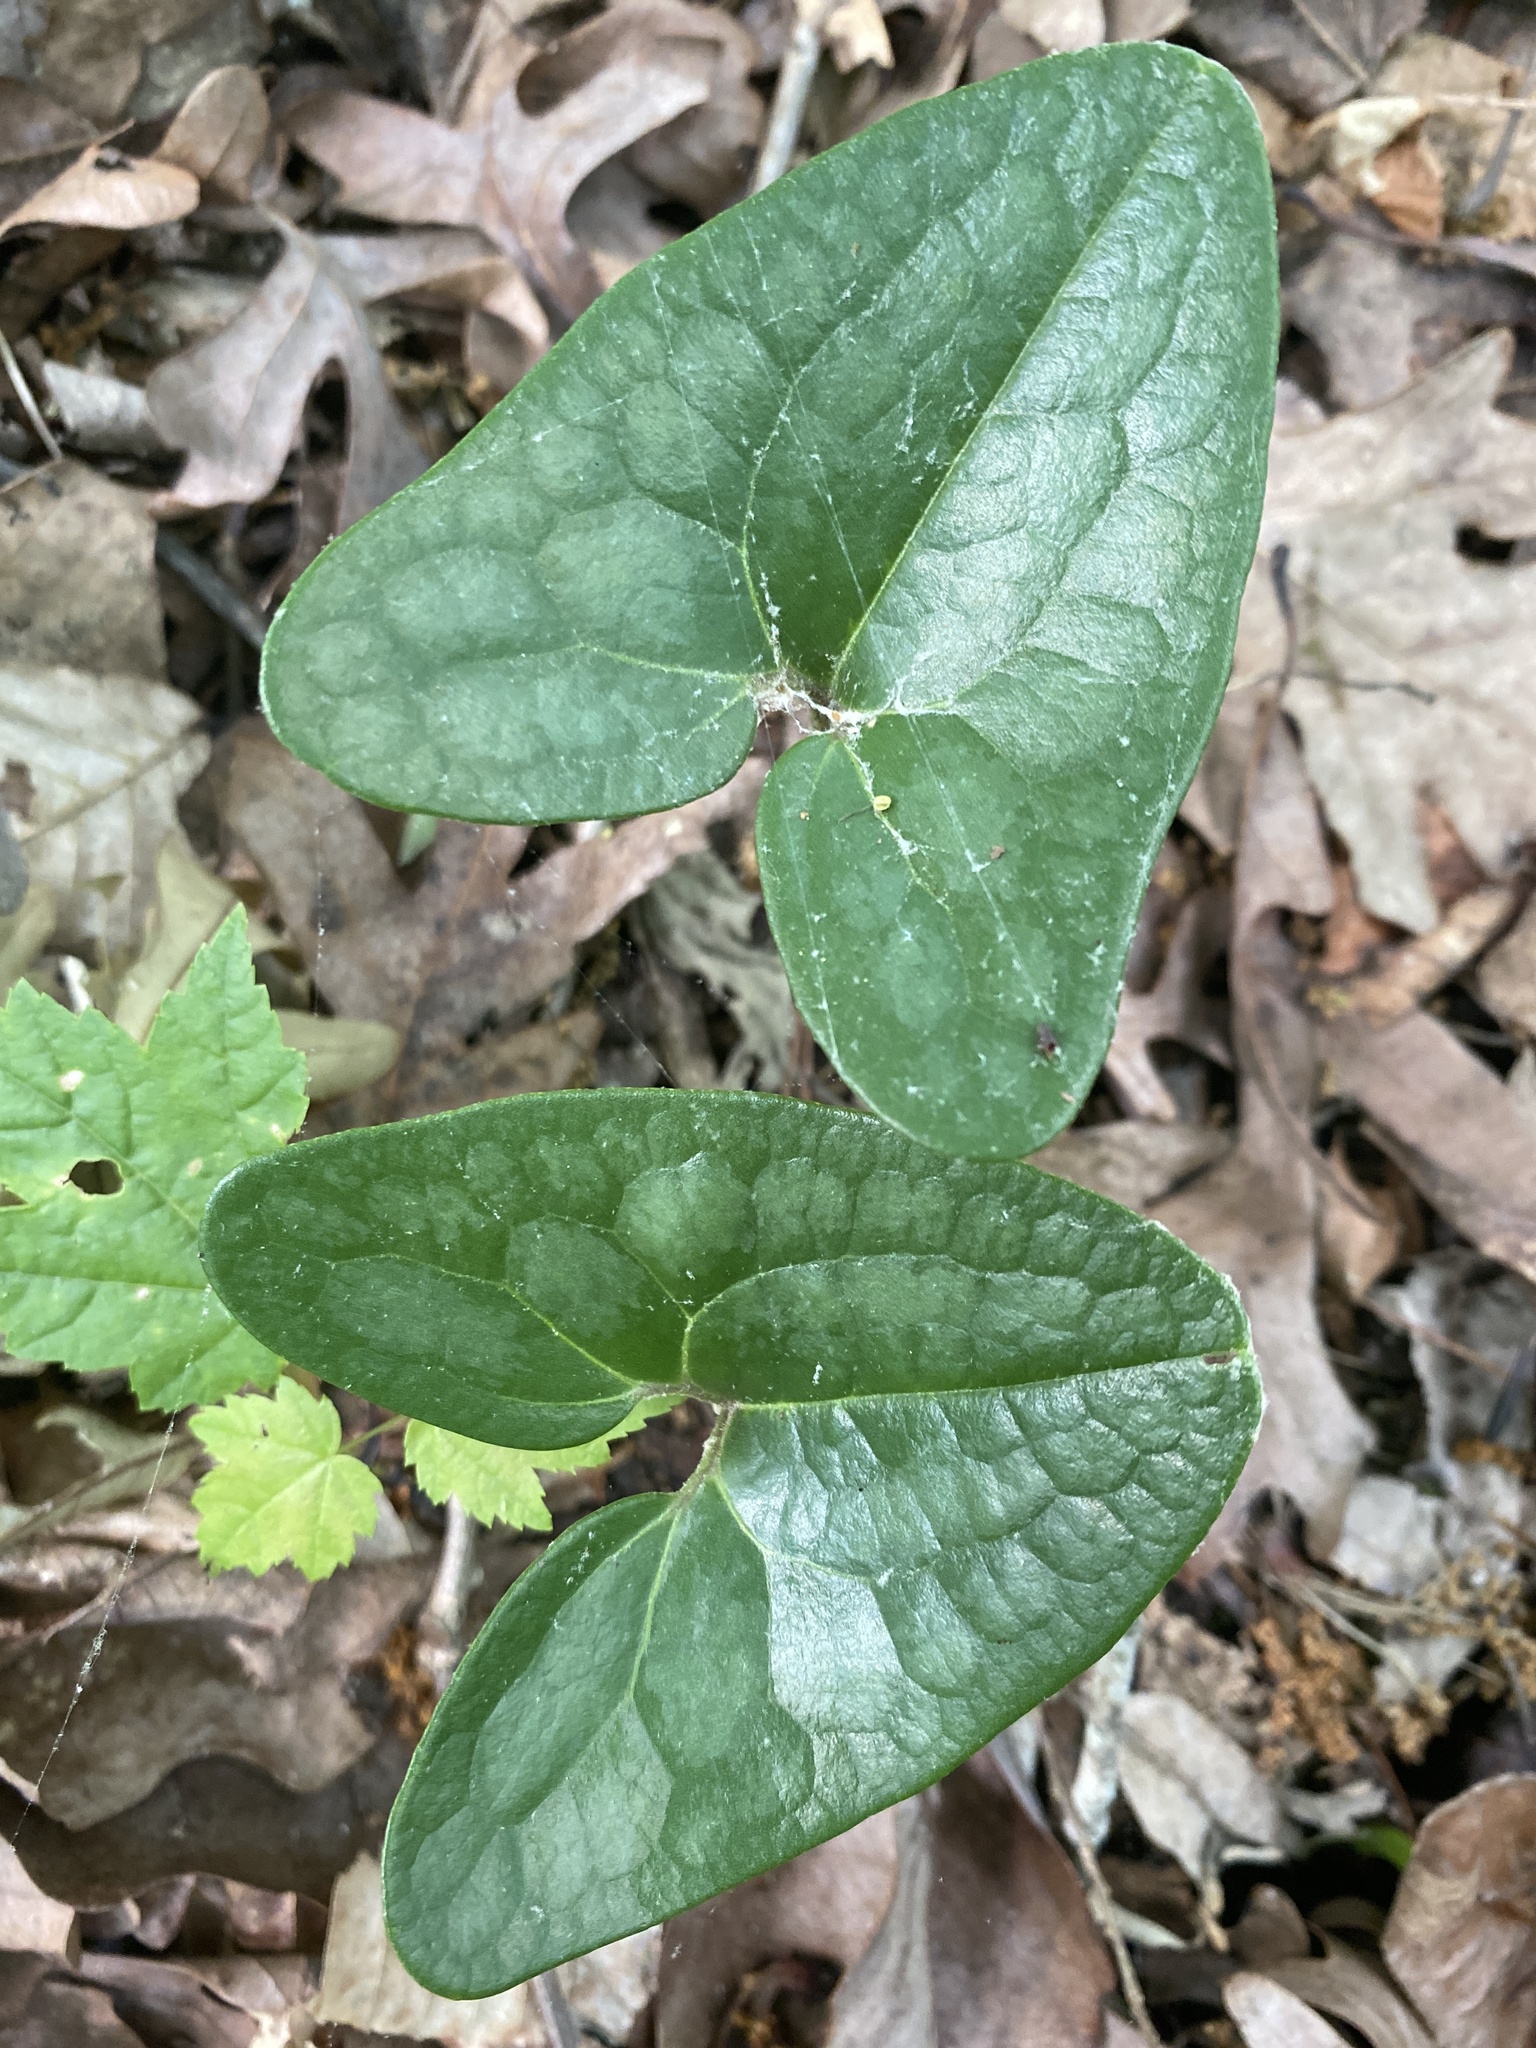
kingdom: Plantae
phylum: Tracheophyta
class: Magnoliopsida
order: Piperales
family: Aristolochiaceae
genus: Hexastylis
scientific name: Hexastylis arifolia
